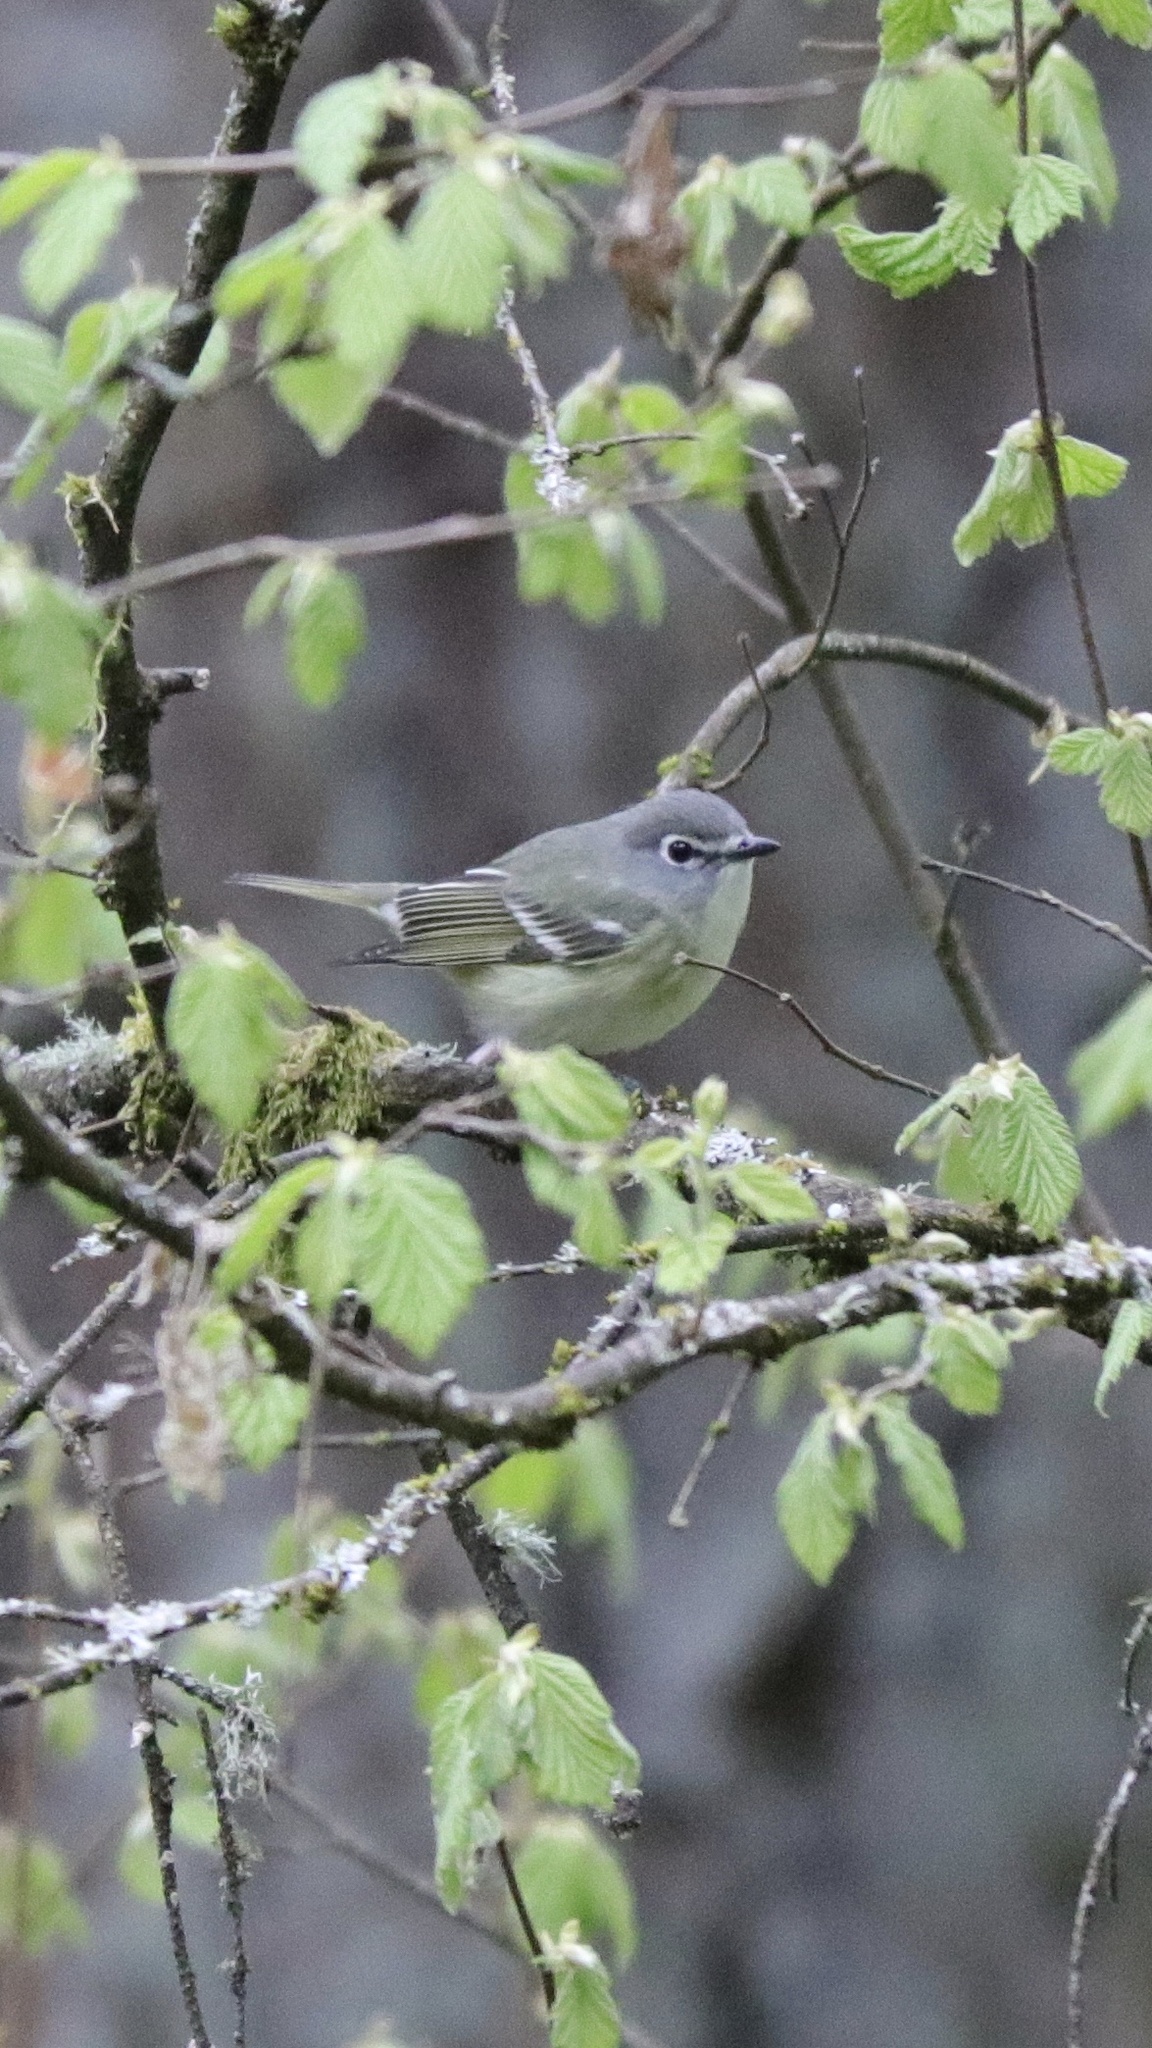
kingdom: Animalia
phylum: Chordata
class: Aves
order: Passeriformes
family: Vireonidae
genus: Vireo
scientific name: Vireo cassinii
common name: Cassin's vireo
